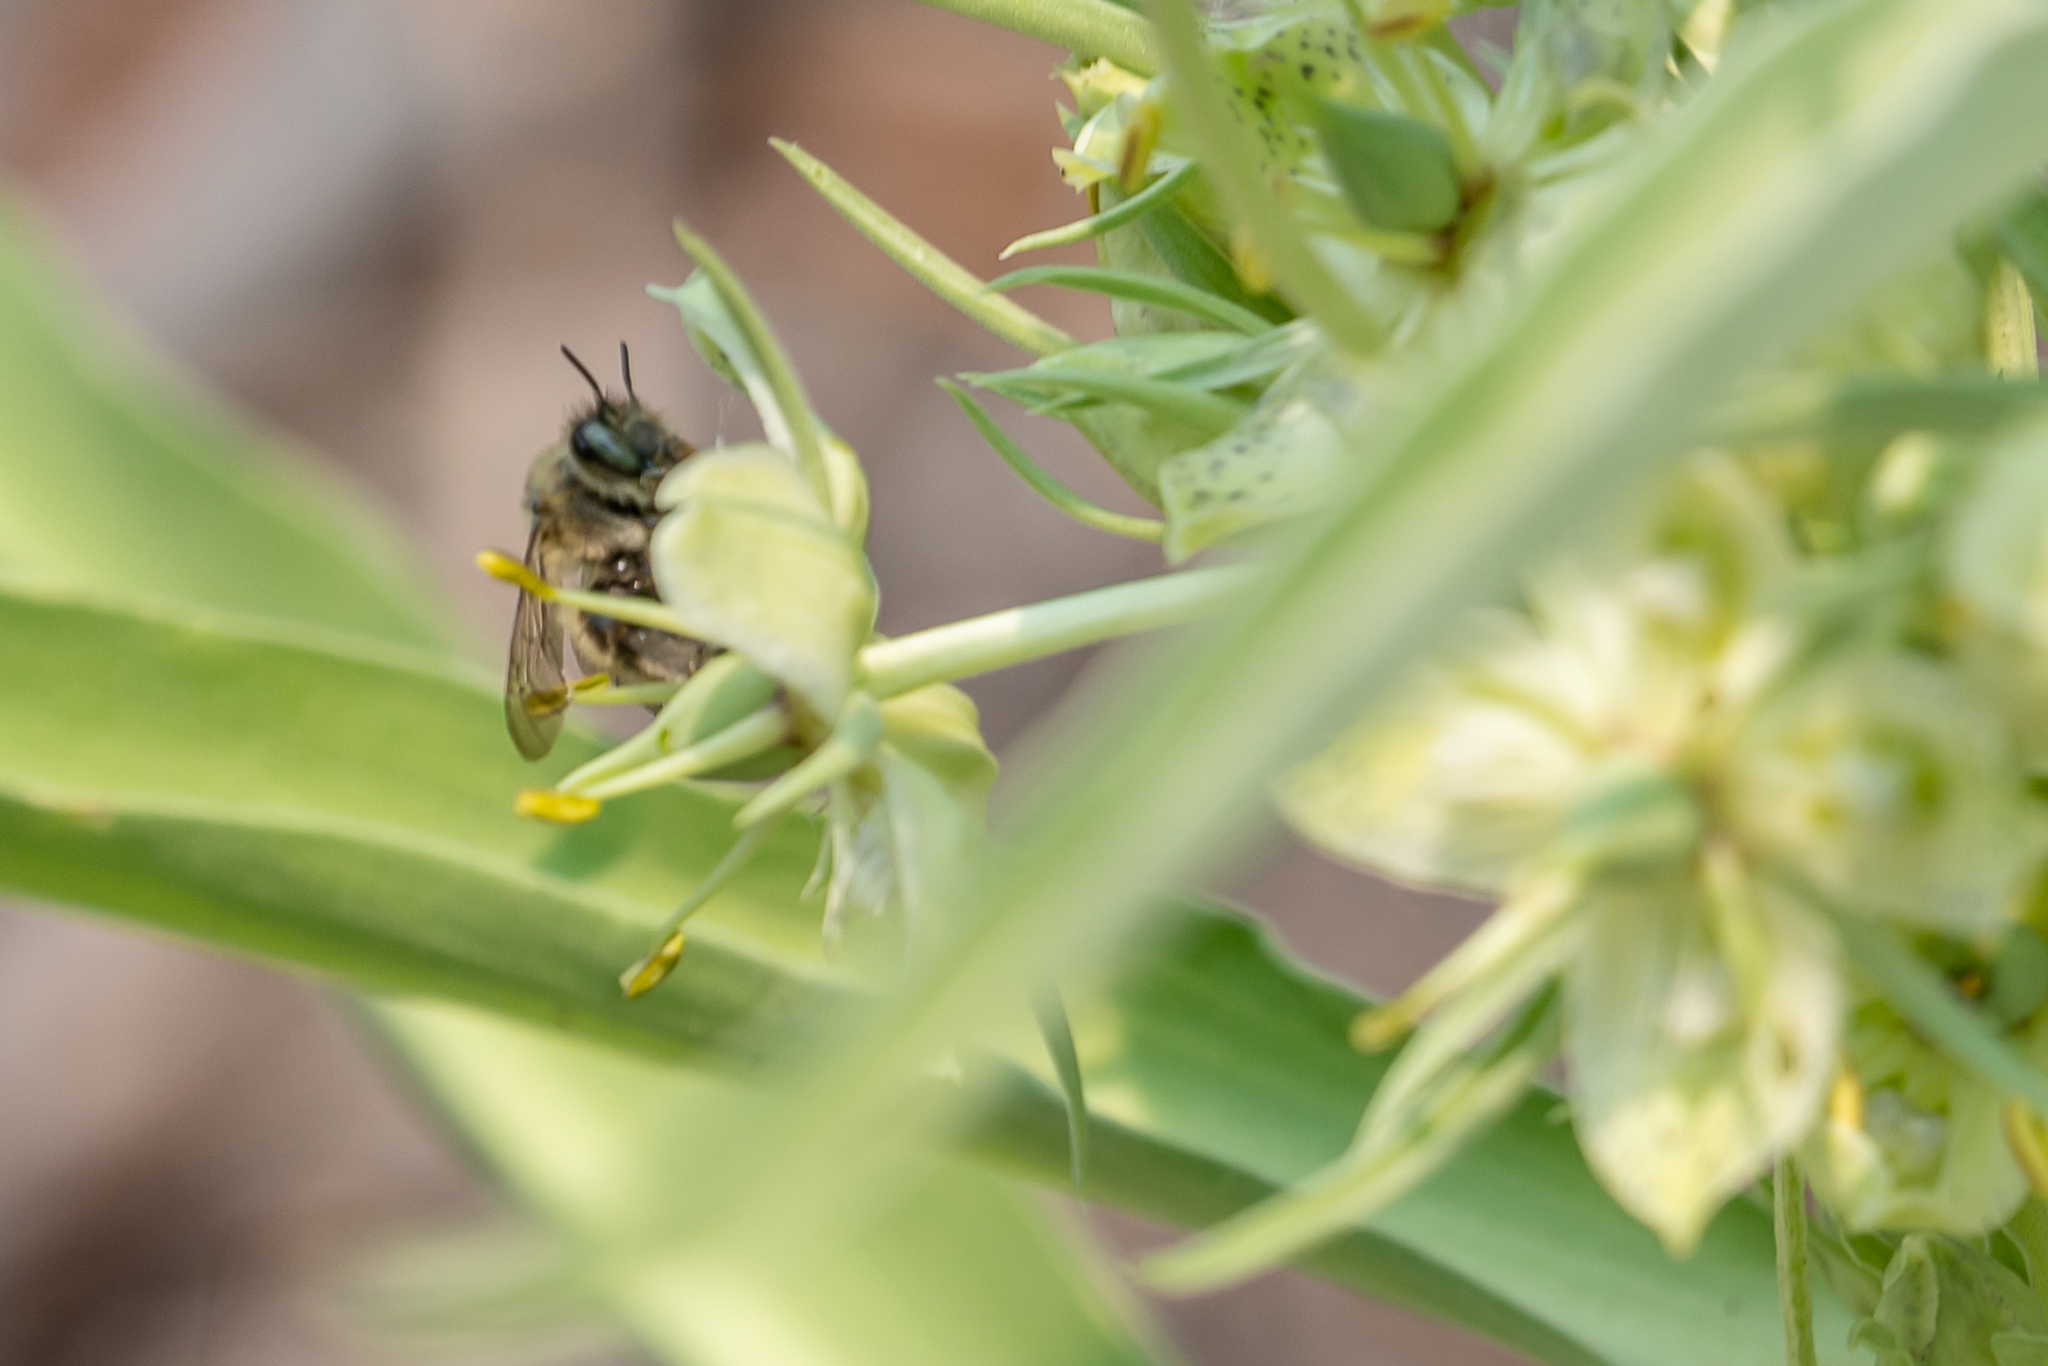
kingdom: Animalia
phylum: Arthropoda
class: Insecta
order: Hymenoptera
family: Apidae
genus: Anthophora
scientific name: Anthophora terminalis
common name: Orange-tipped wood-digger bee
